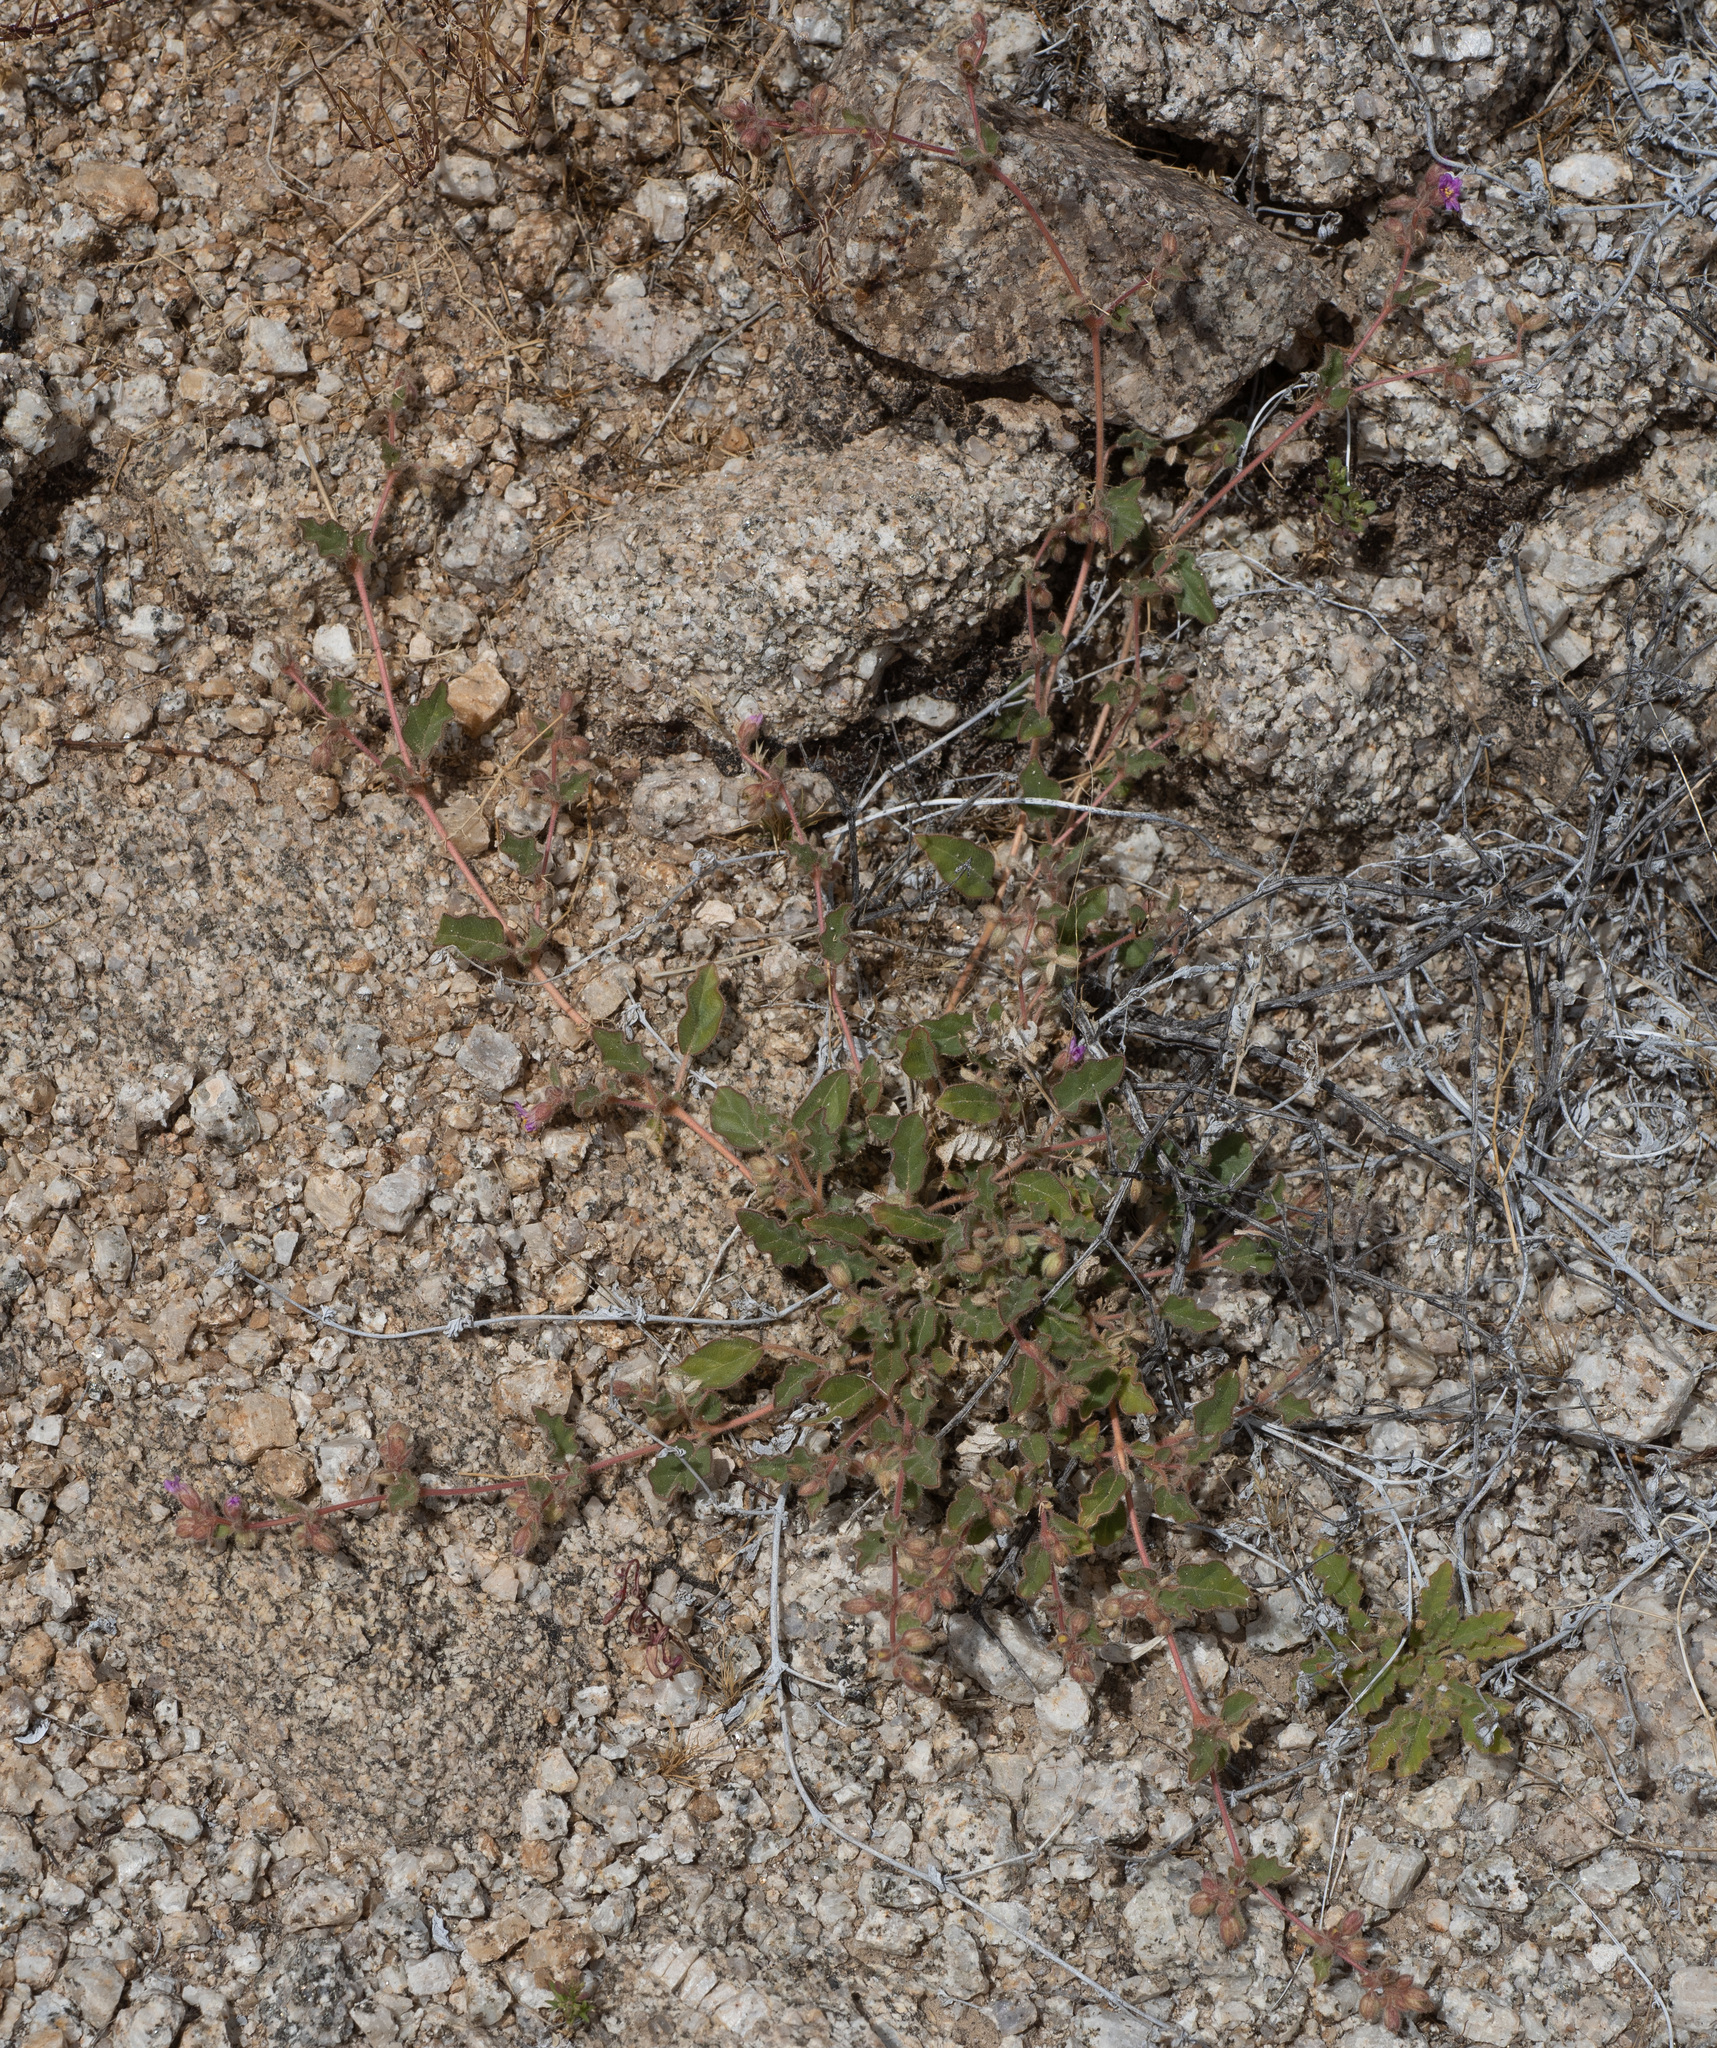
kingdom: Plantae
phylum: Tracheophyta
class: Magnoliopsida
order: Caryophyllales
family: Nyctaginaceae
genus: Allionia
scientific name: Allionia incarnata
